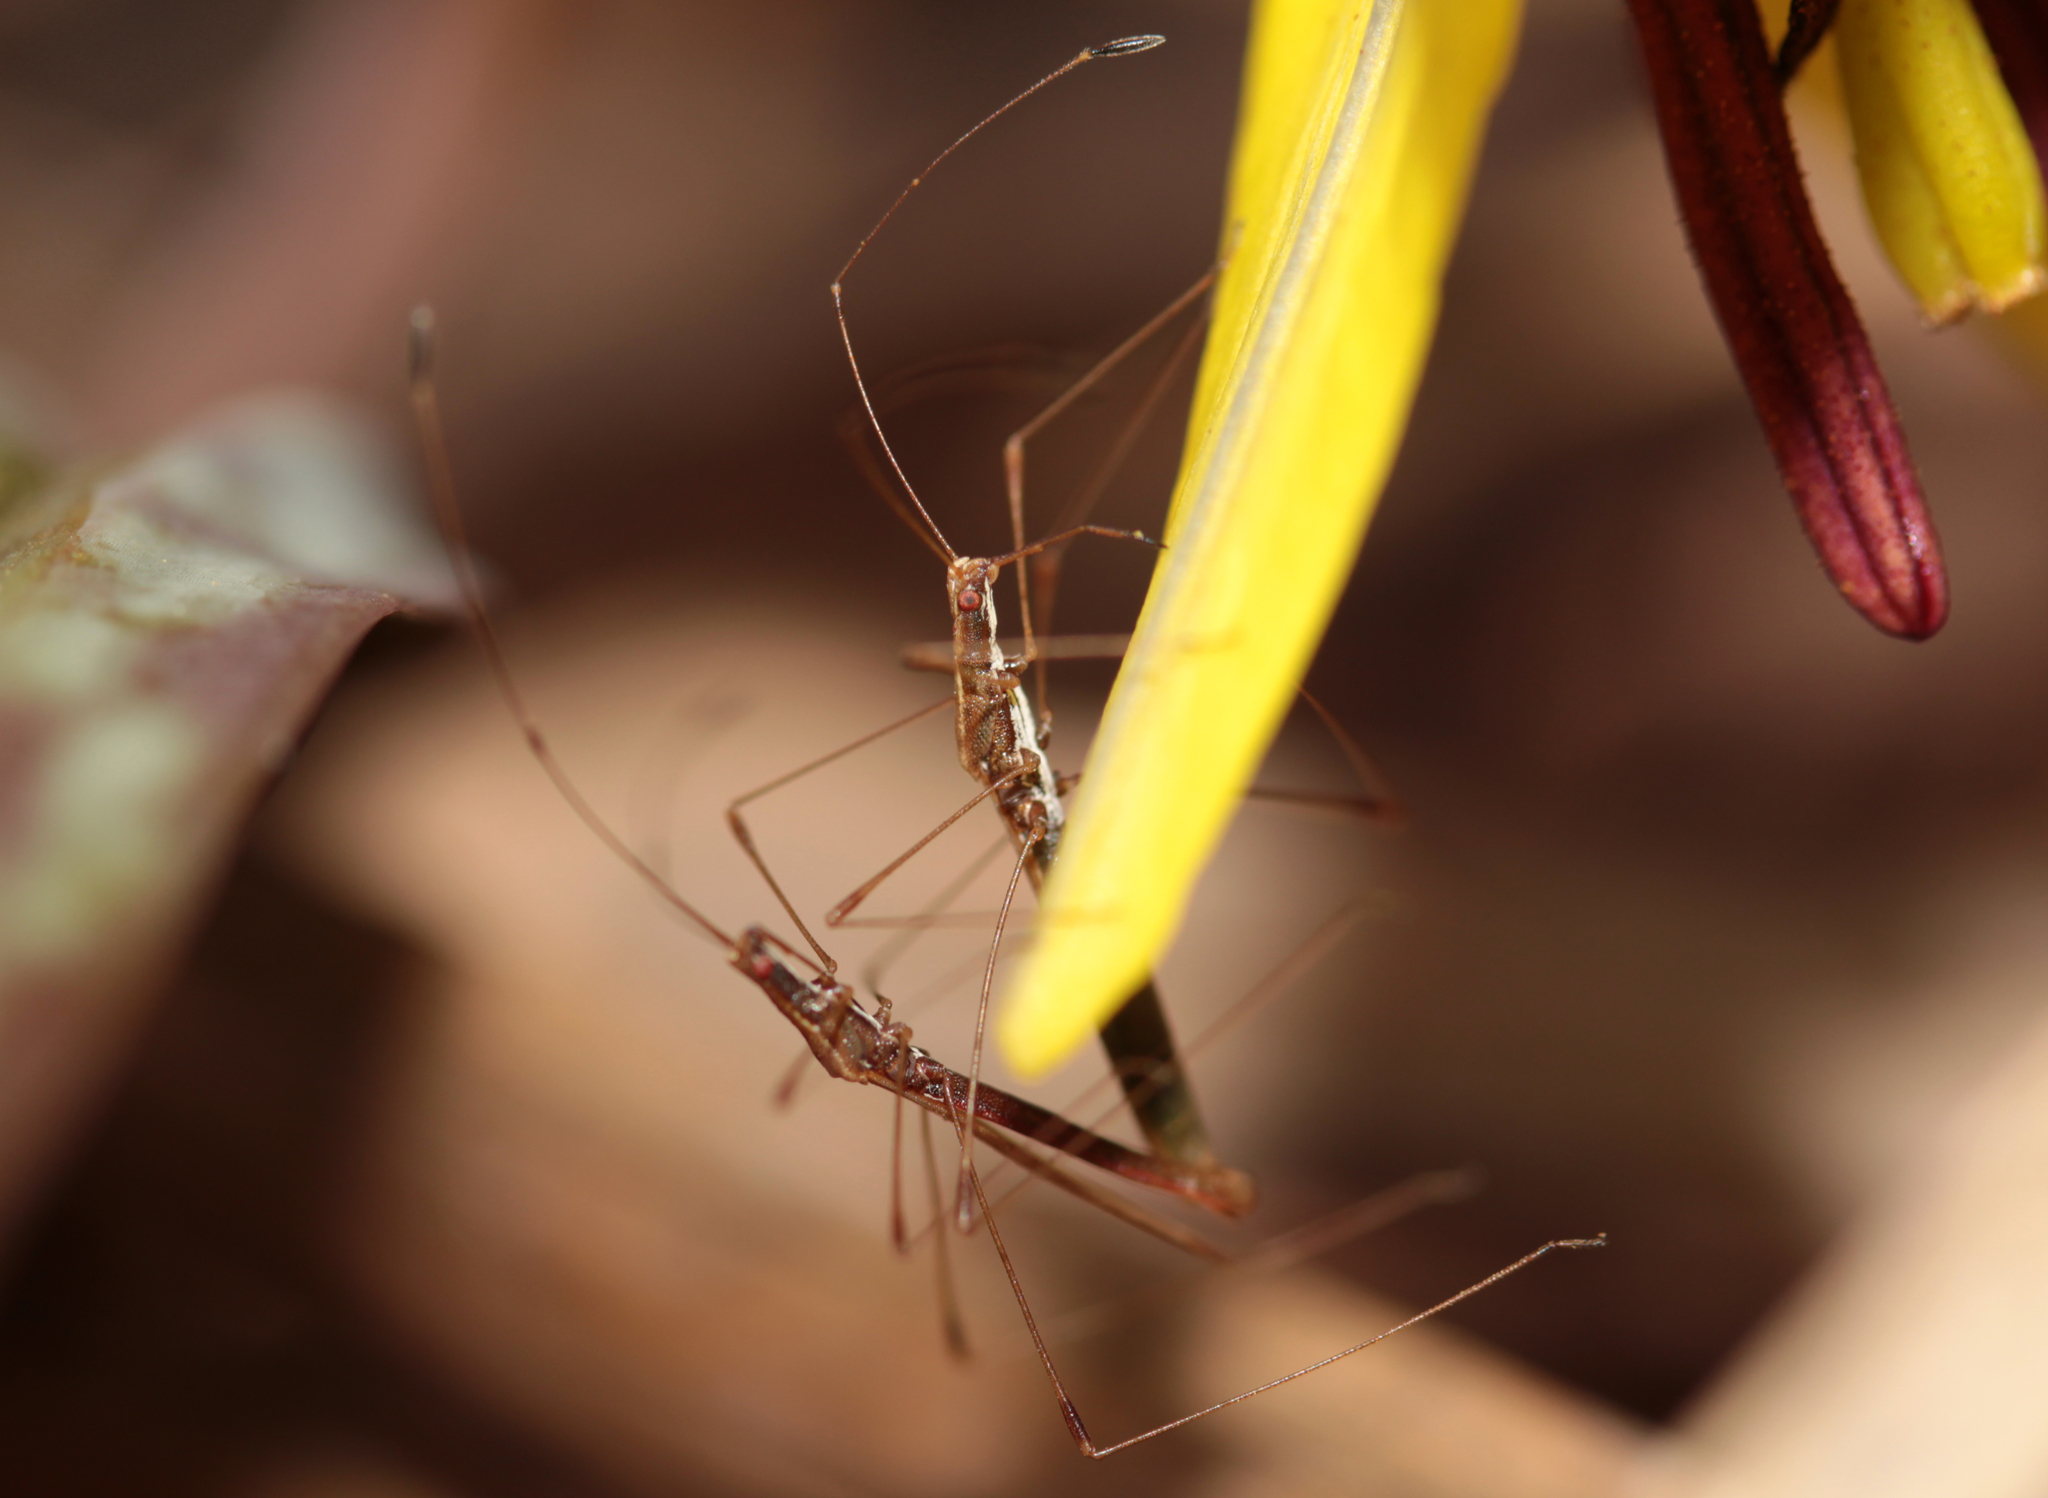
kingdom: Animalia
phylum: Arthropoda
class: Insecta
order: Hemiptera
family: Berytidae
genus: Neoneides
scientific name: Neoneides muticus
